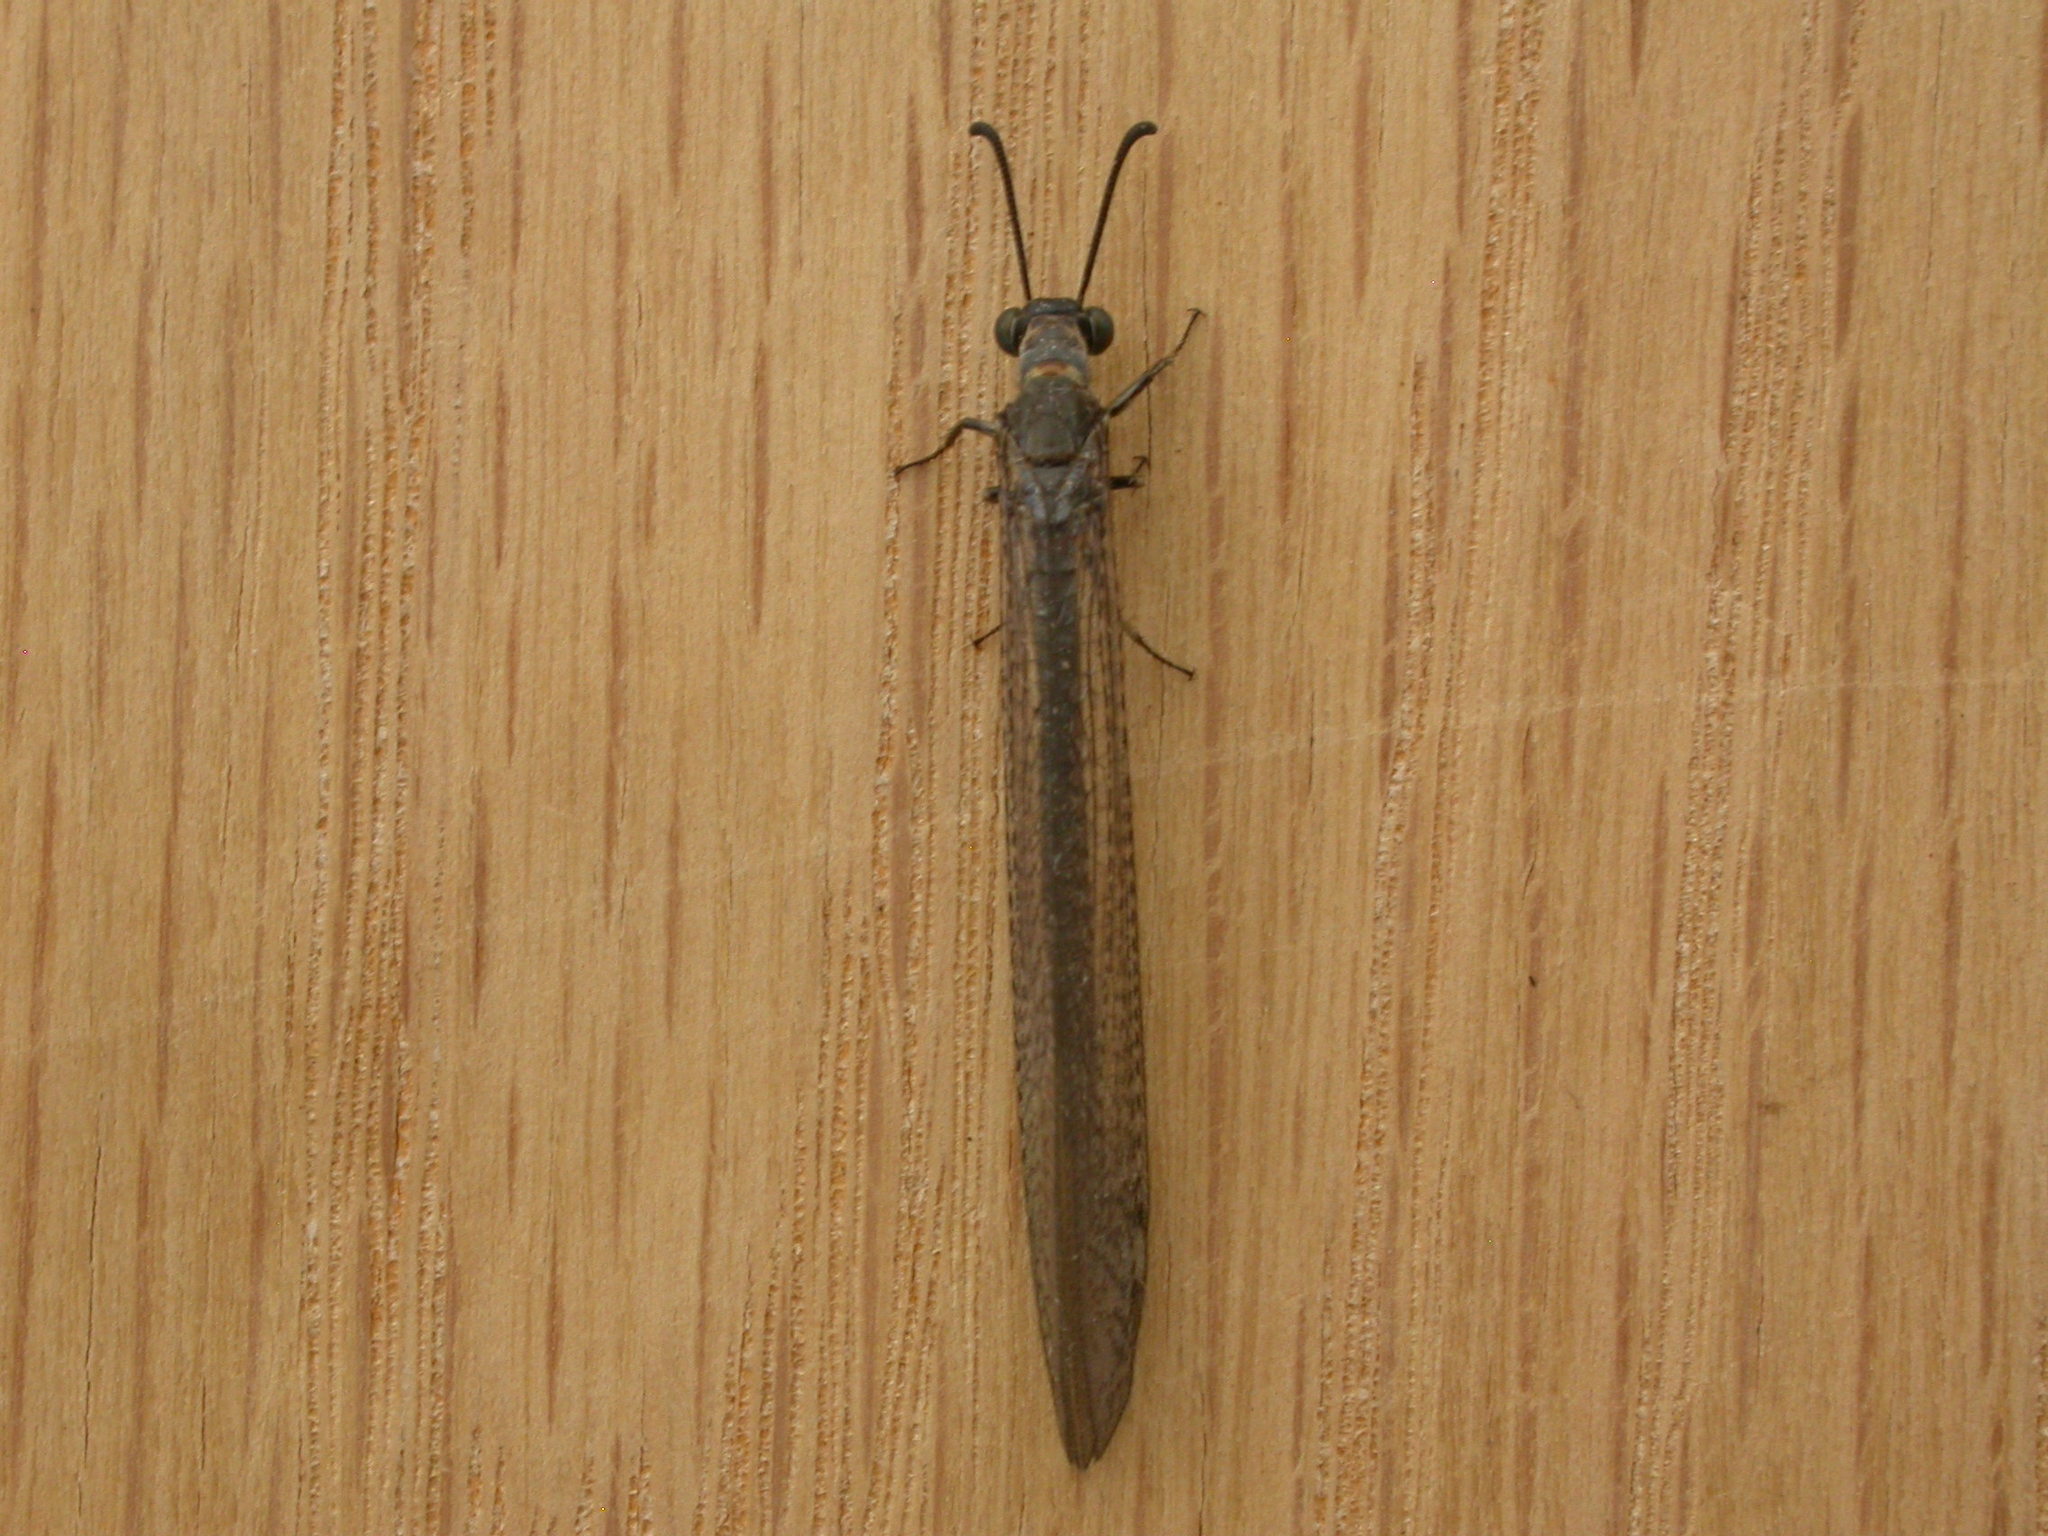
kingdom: Animalia
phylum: Arthropoda
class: Insecta
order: Neuroptera
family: Myrmeleontidae
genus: Myrmeleon
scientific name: Myrmeleon acer
